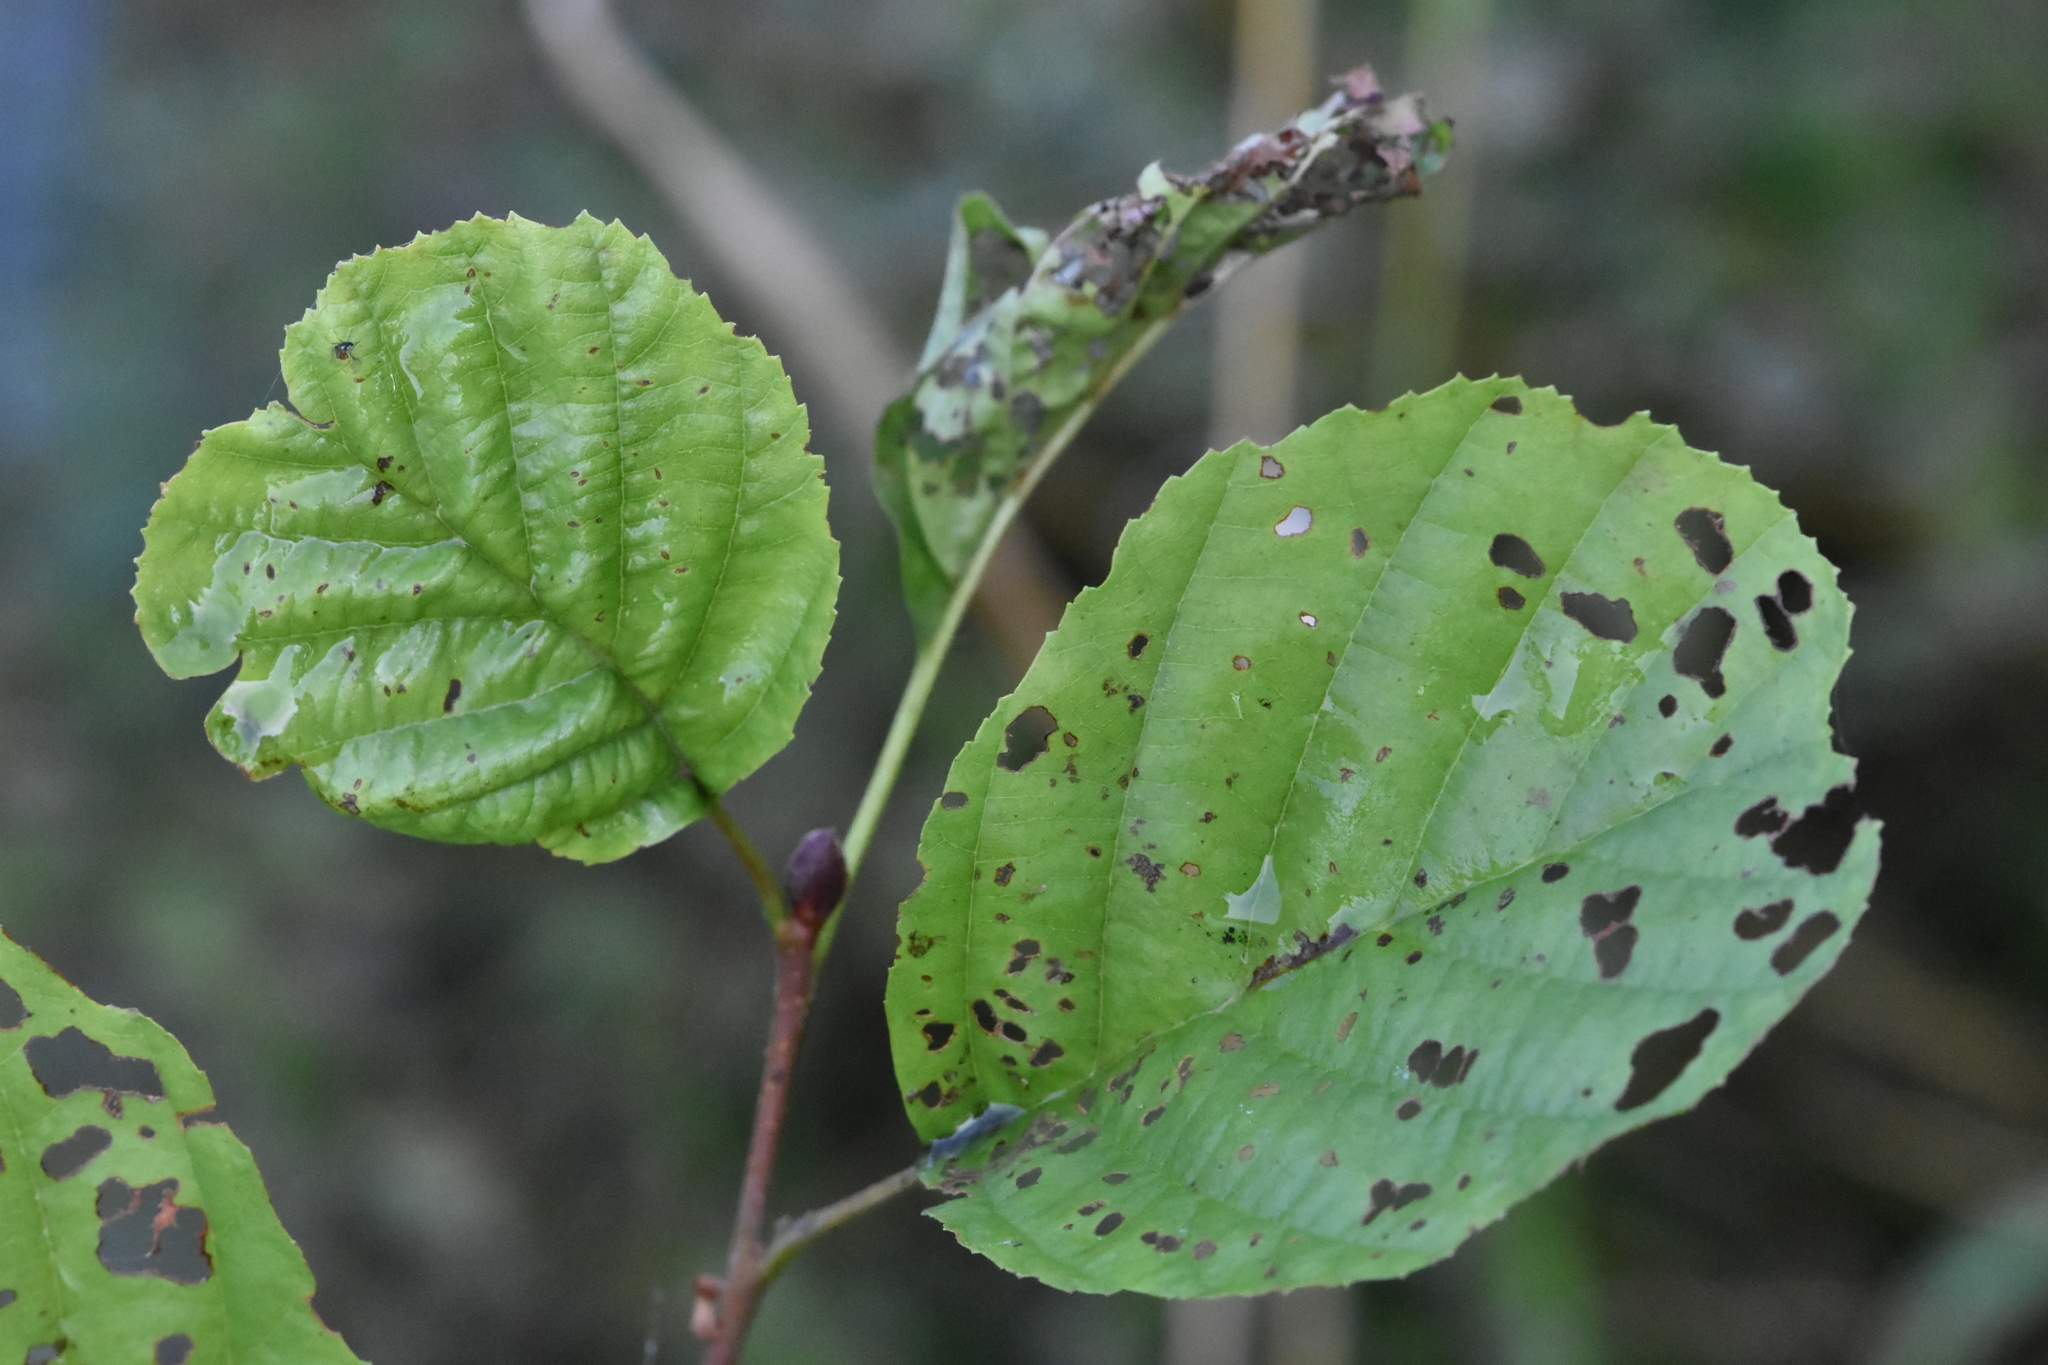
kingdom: Plantae
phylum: Tracheophyta
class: Magnoliopsida
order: Fagales
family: Betulaceae
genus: Alnus
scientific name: Alnus glutinosa
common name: Black alder
